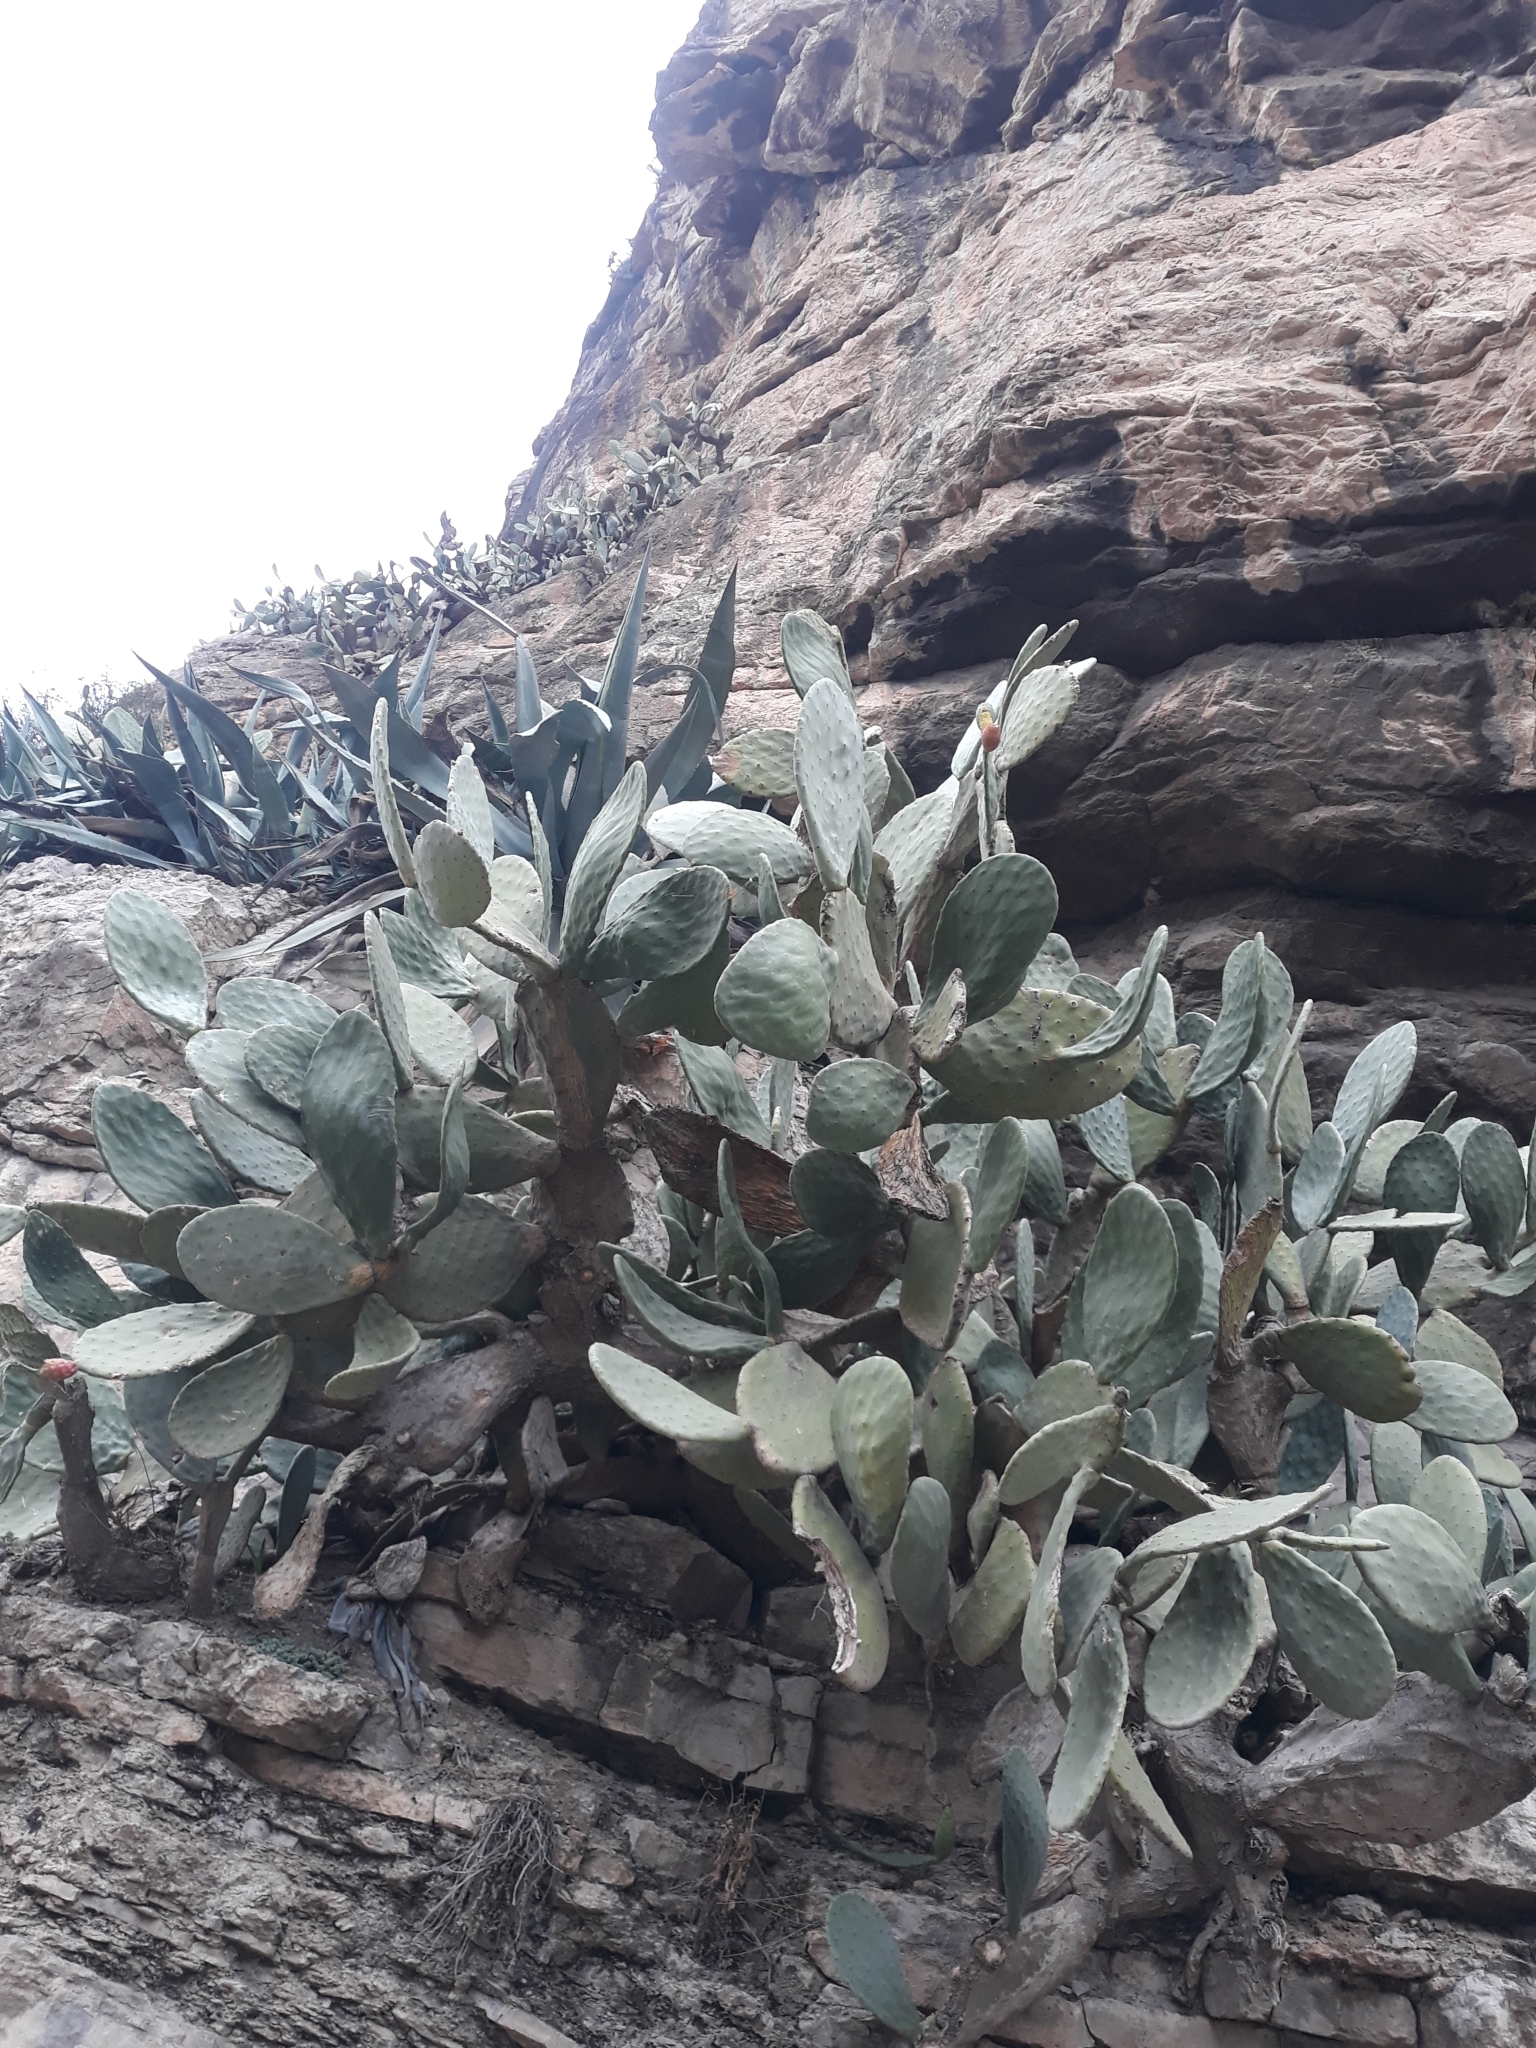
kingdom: Plantae
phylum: Tracheophyta
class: Magnoliopsida
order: Caryophyllales
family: Cactaceae
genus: Opuntia
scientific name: Opuntia ficus-indica
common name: Barbary fig
